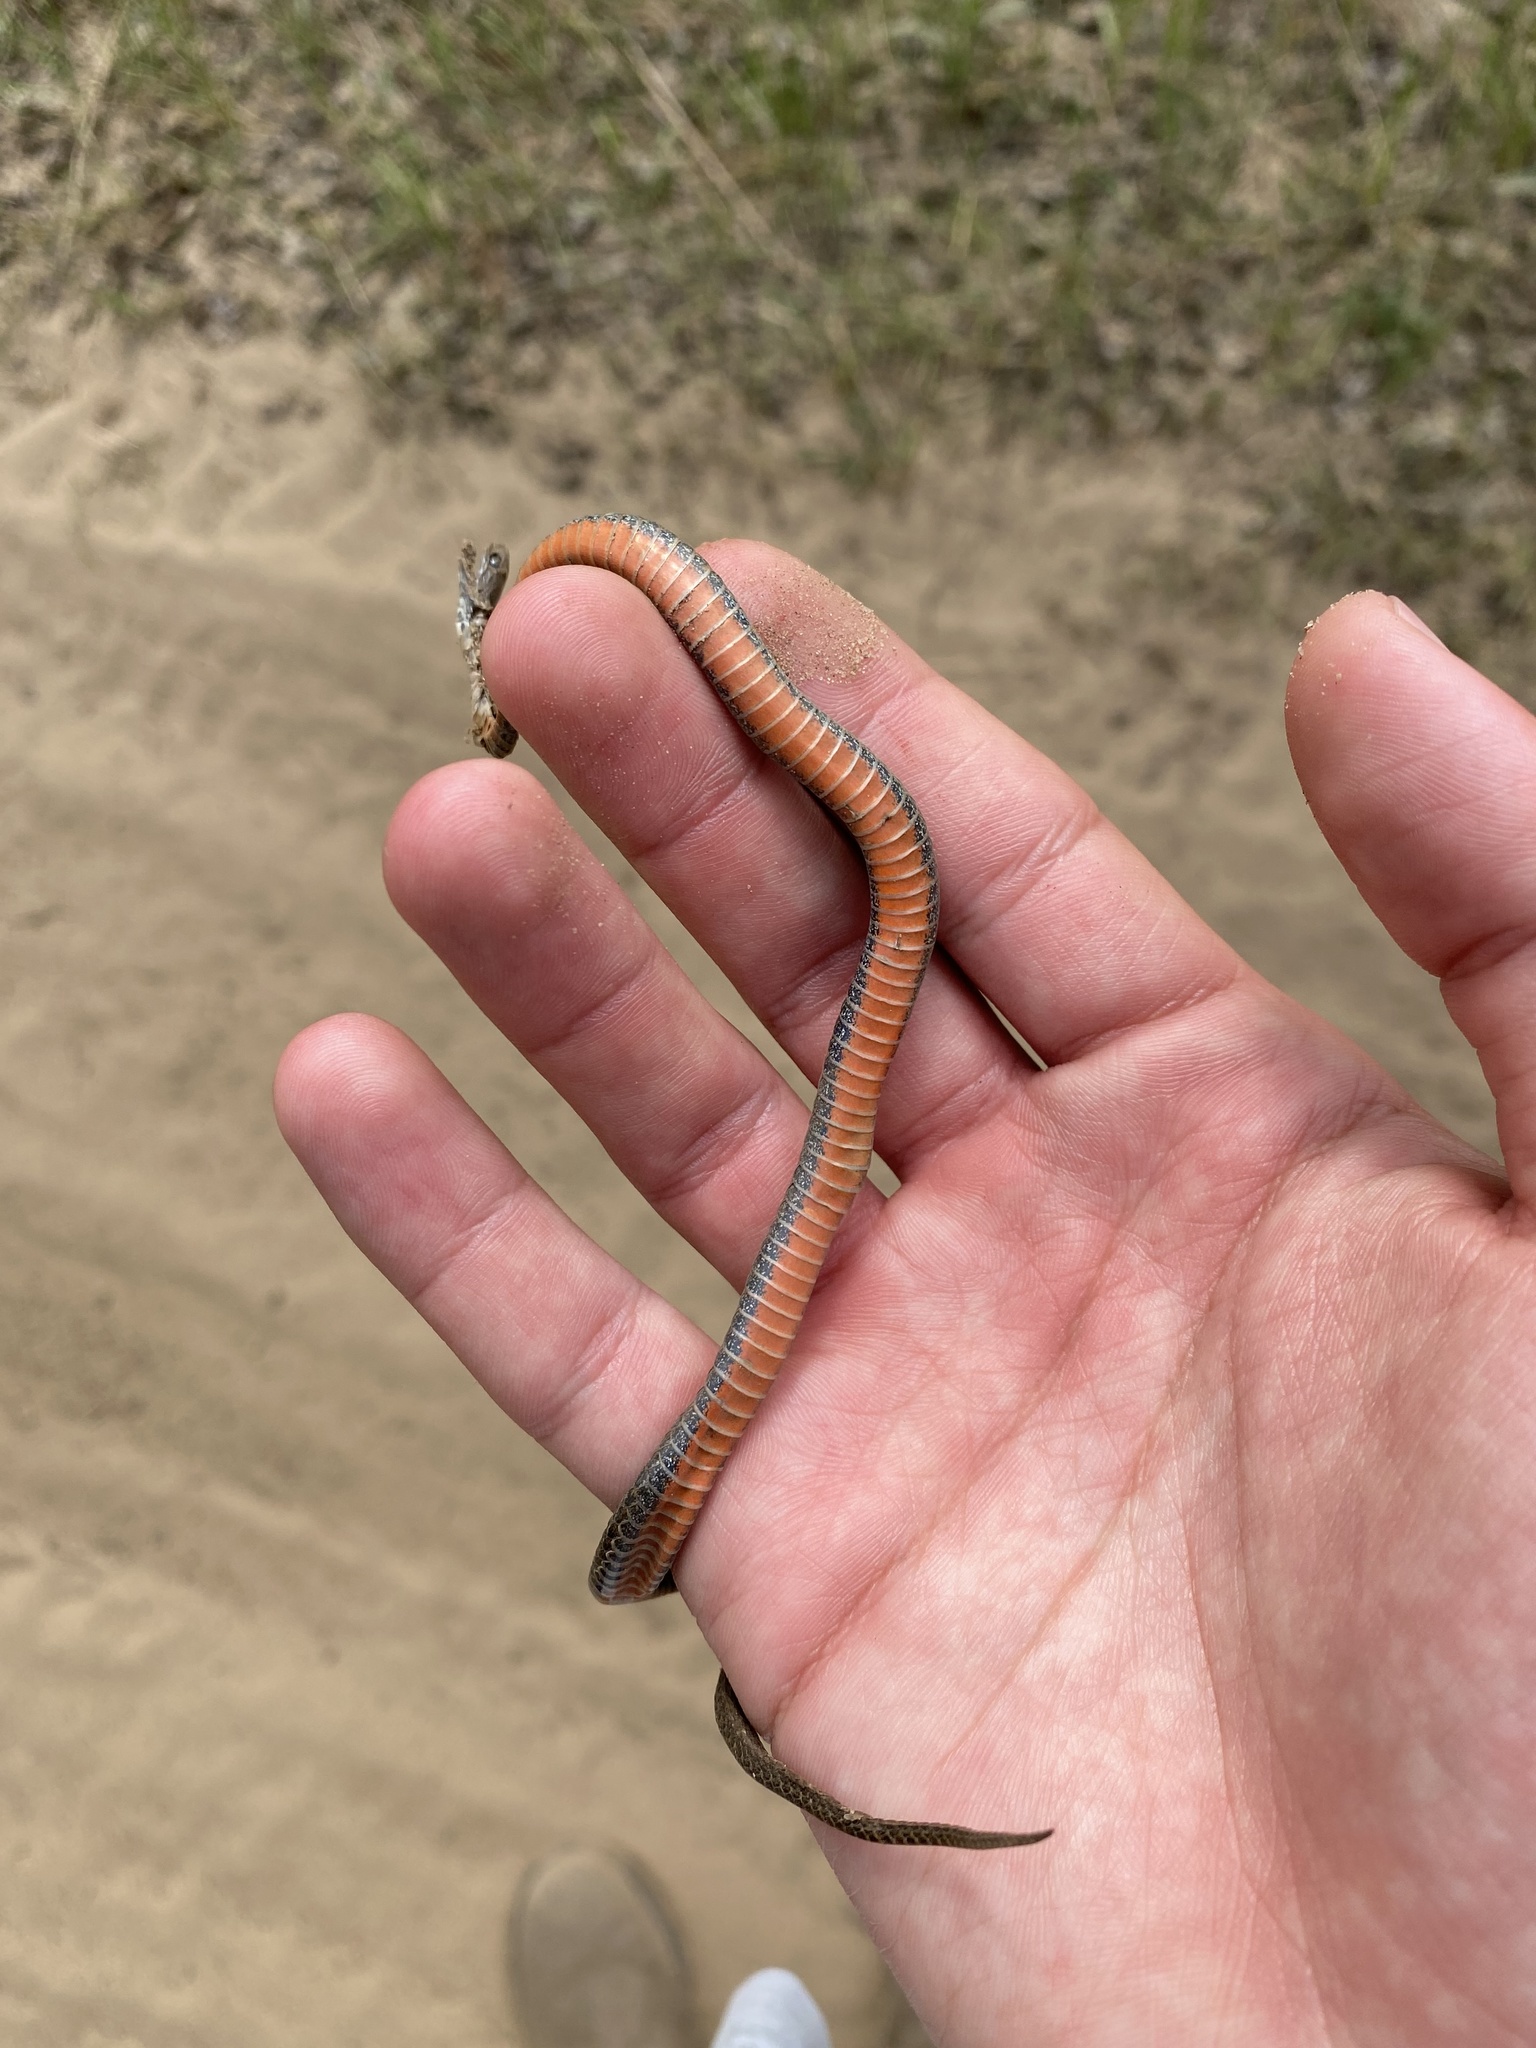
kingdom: Animalia
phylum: Chordata
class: Squamata
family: Colubridae
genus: Storeria
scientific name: Storeria occipitomaculata
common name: Redbelly snake
